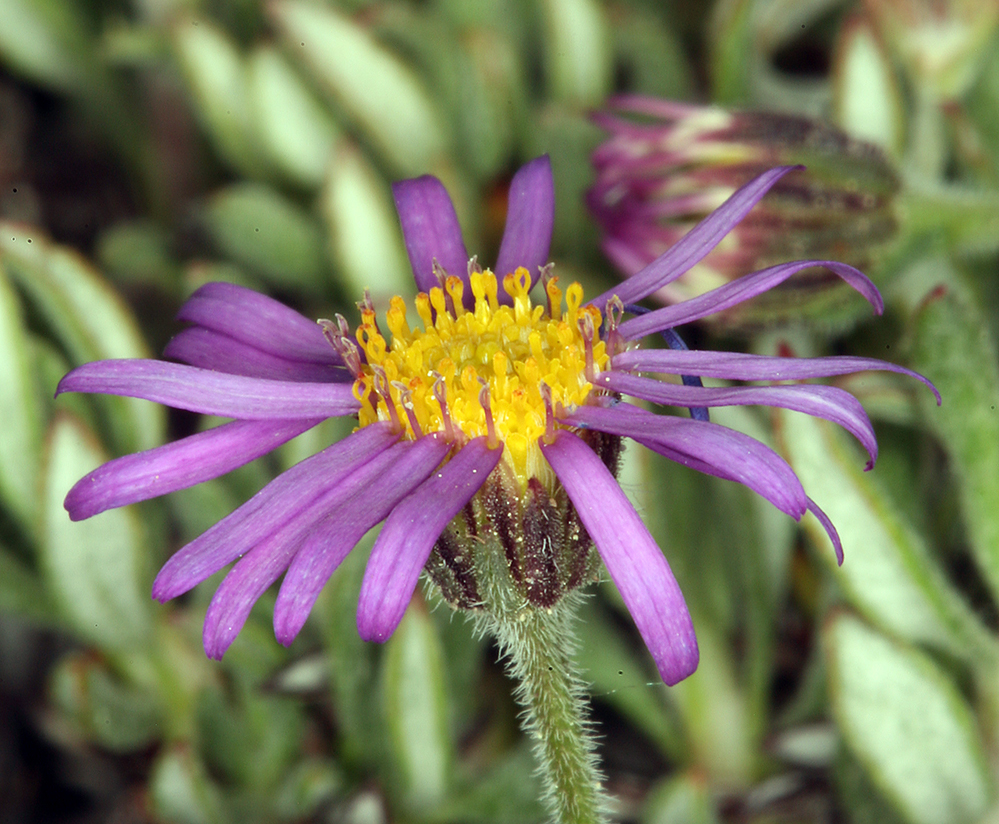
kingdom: Plantae
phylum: Tracheophyta
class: Magnoliopsida
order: Asterales
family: Asteraceae
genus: Erigeron
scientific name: Erigeron clokeyi
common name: Clokey's fleabane
